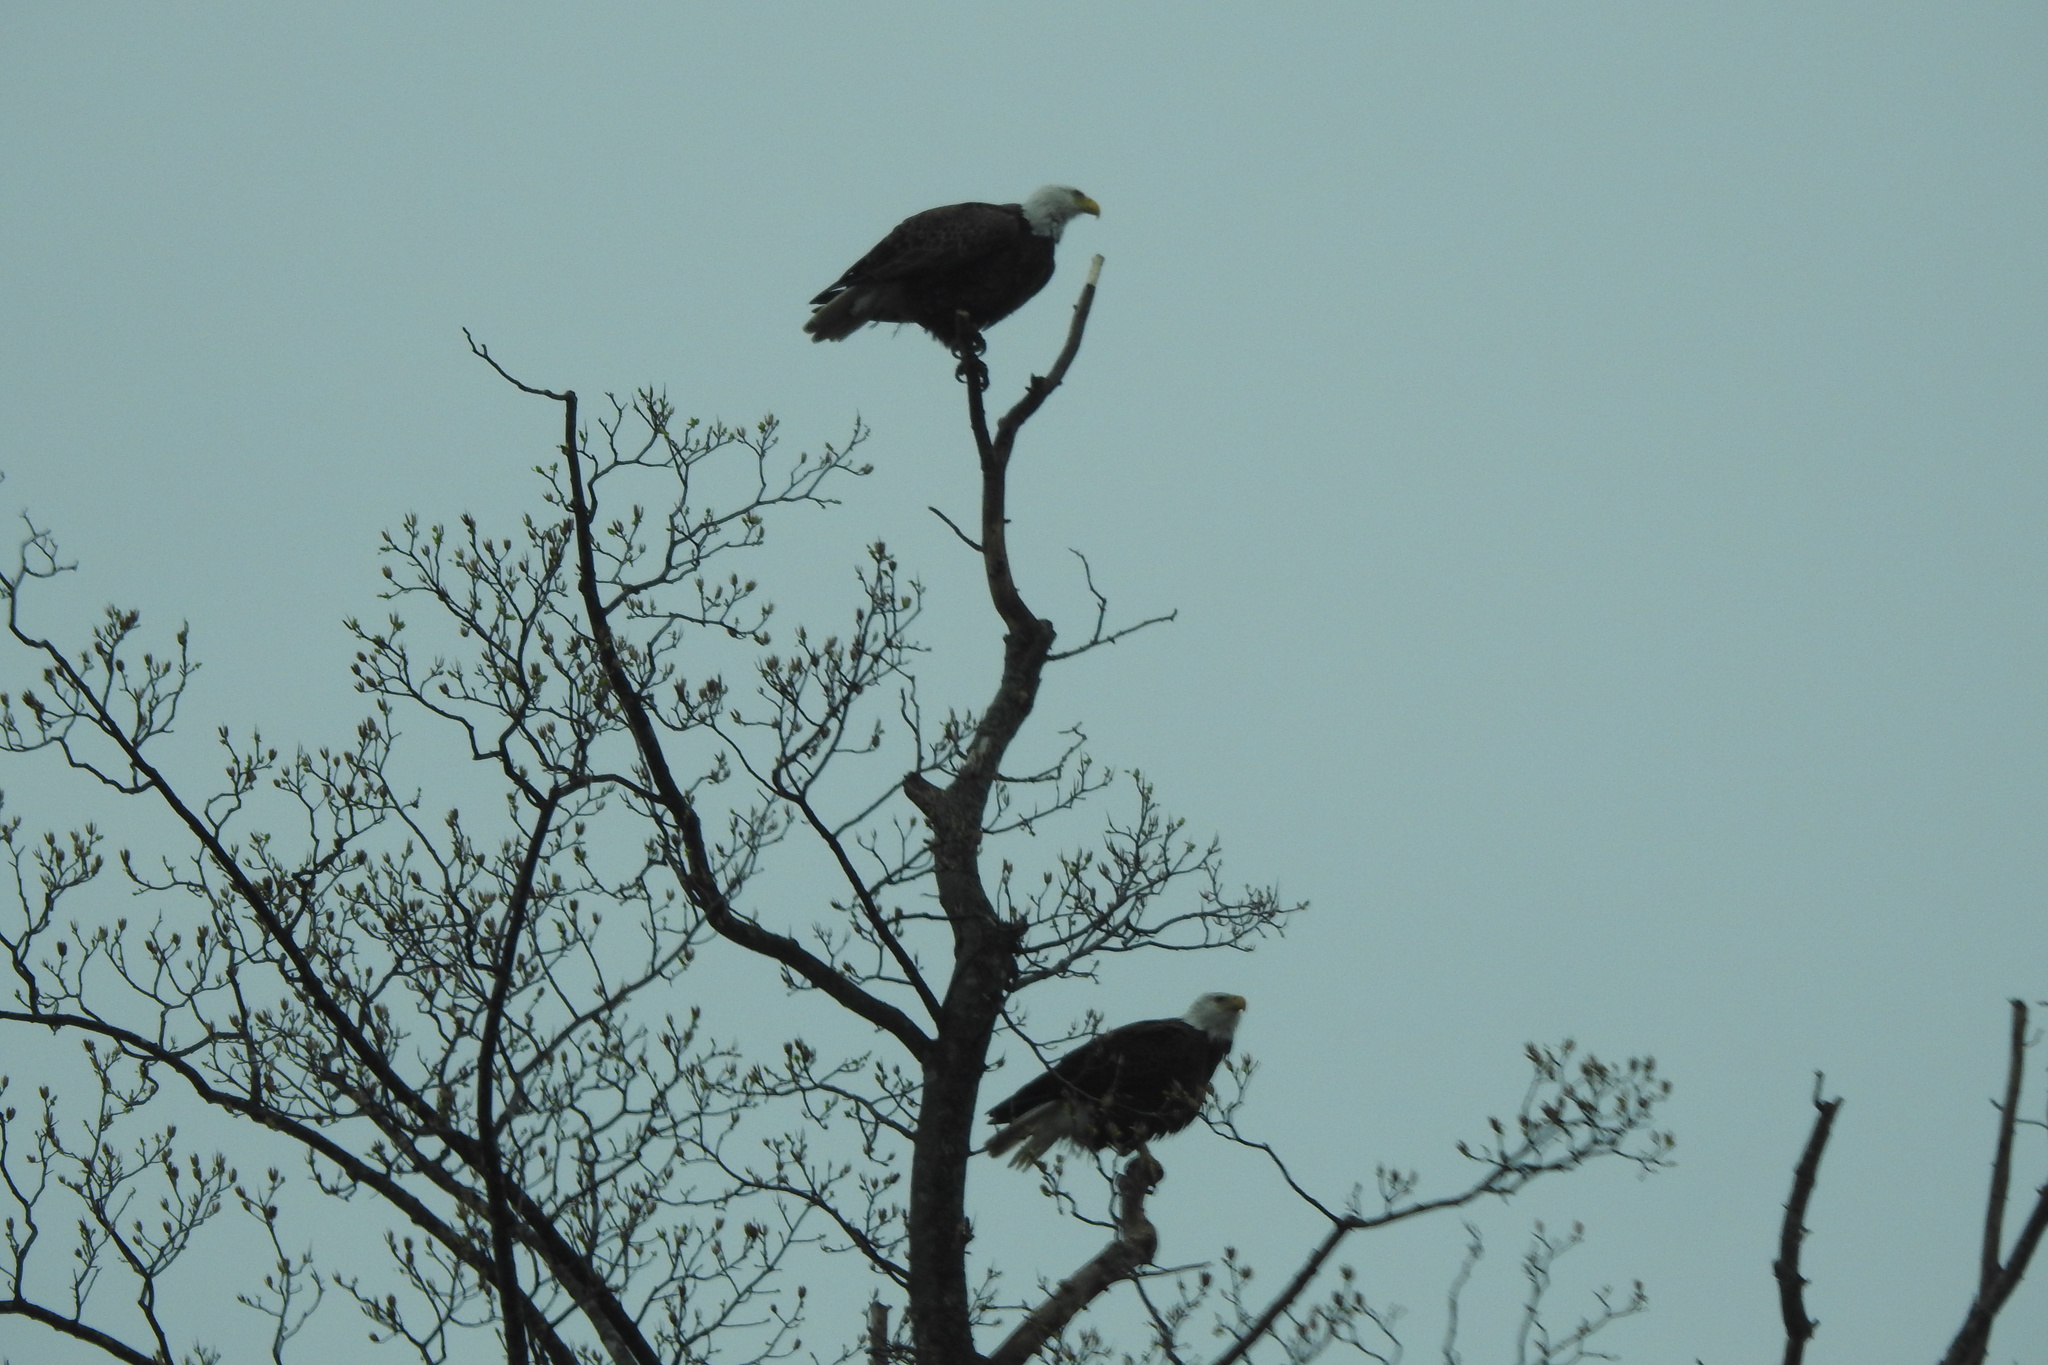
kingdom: Animalia
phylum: Chordata
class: Aves
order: Accipitriformes
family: Accipitridae
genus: Haliaeetus
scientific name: Haliaeetus leucocephalus
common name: Bald eagle
